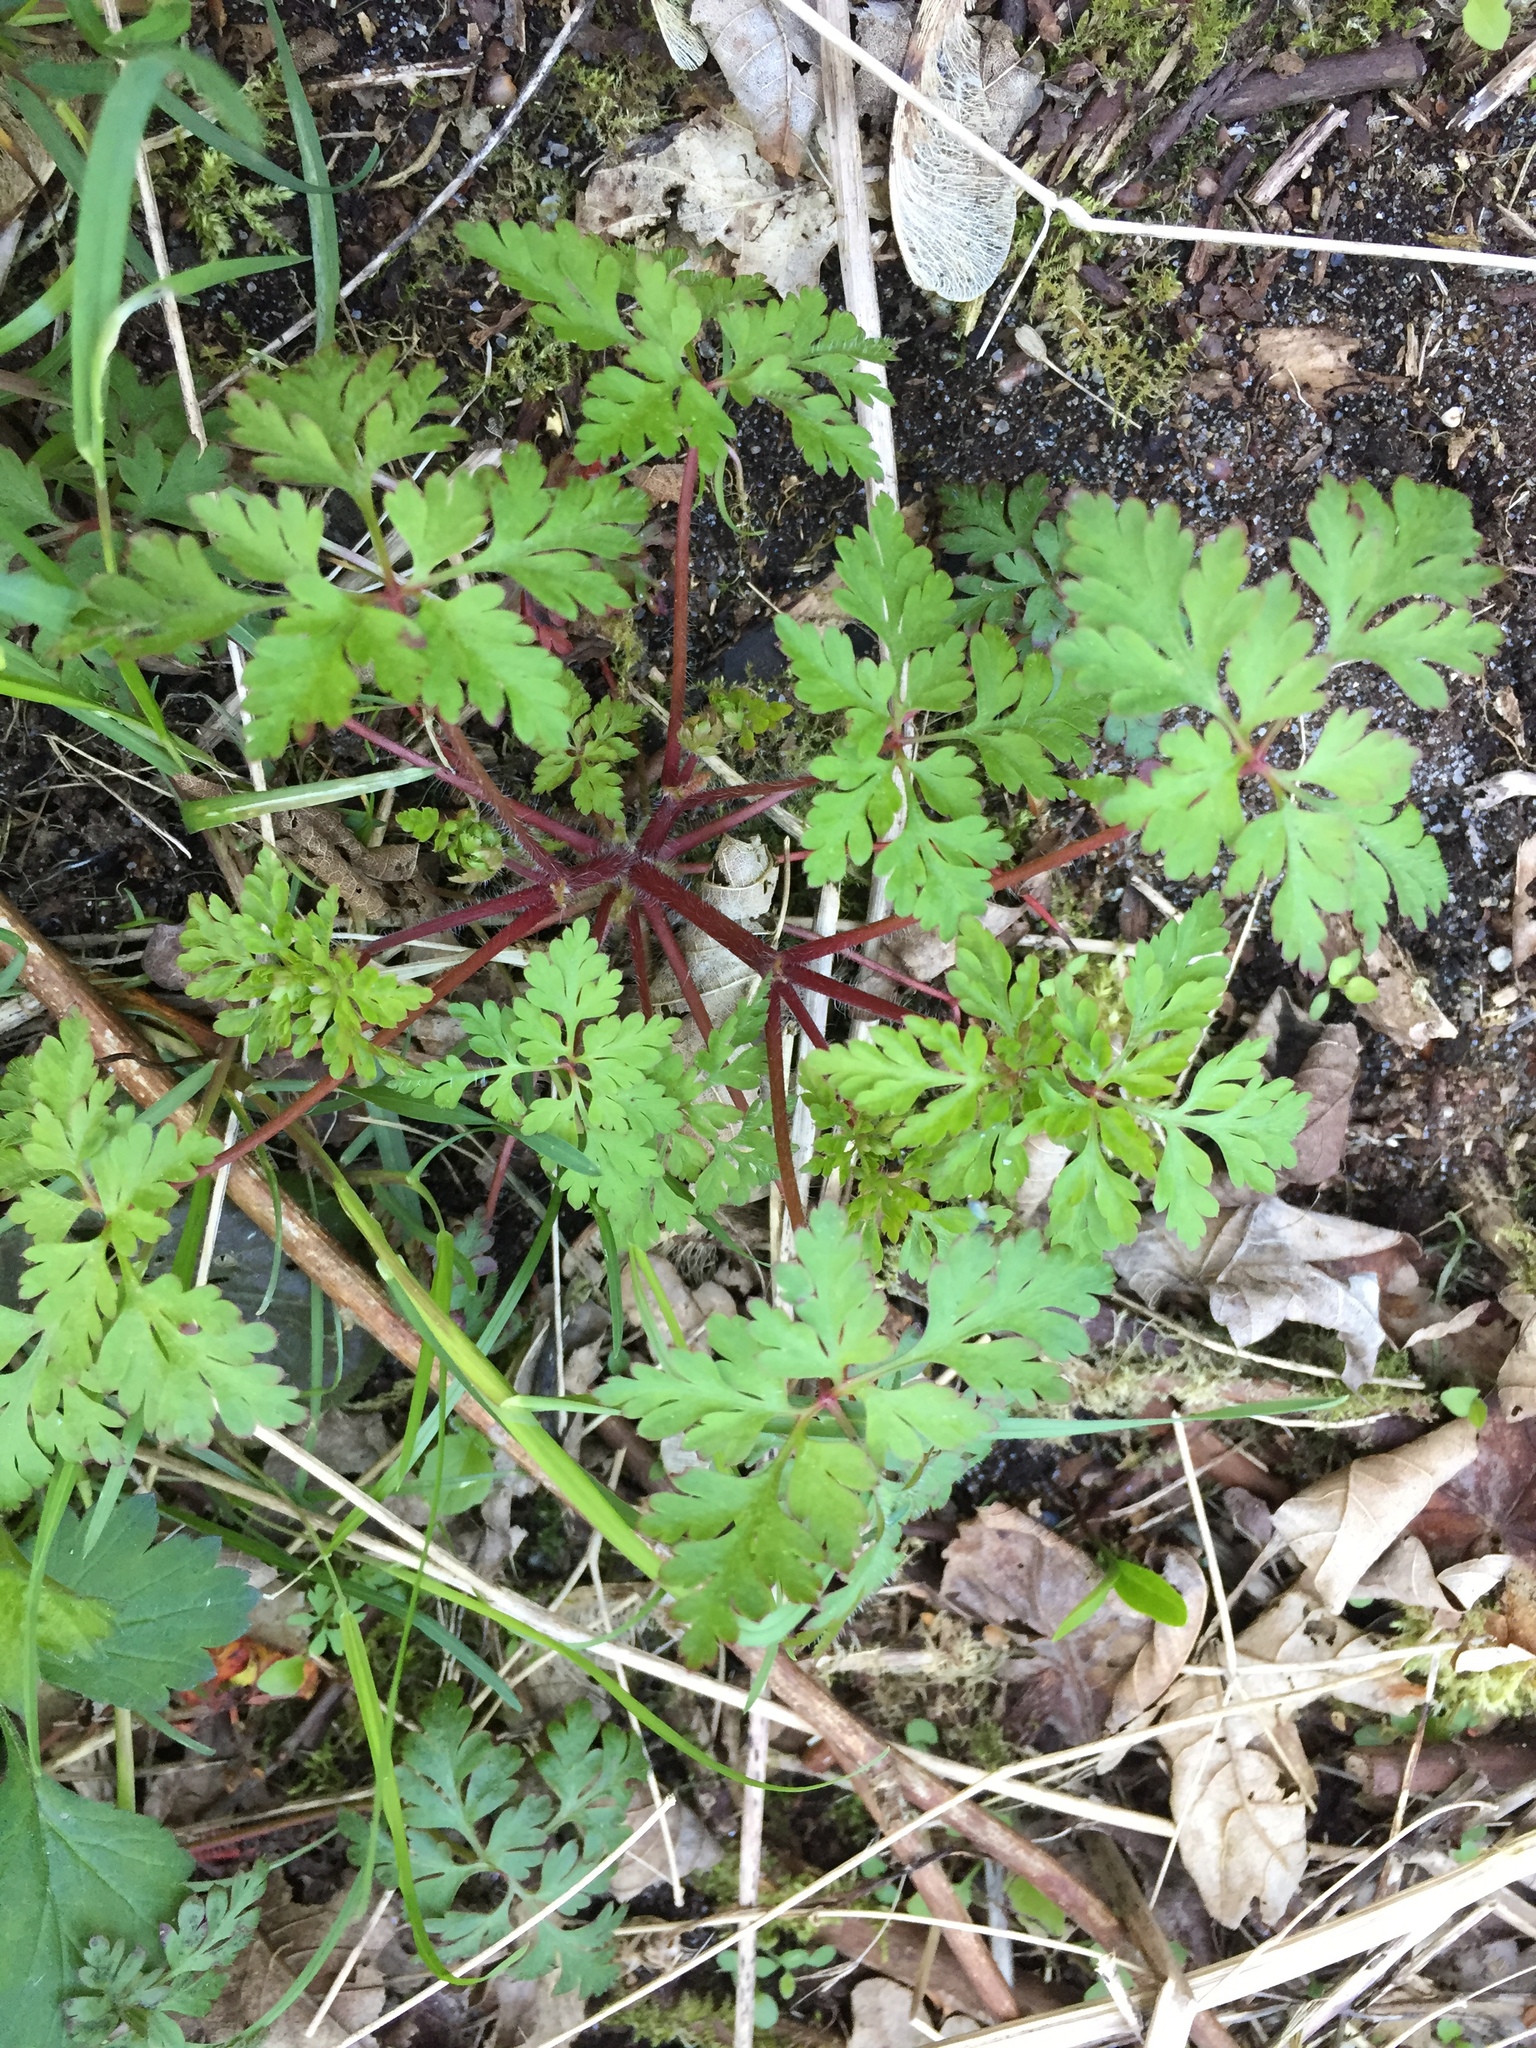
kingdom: Plantae
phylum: Tracheophyta
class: Magnoliopsida
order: Geraniales
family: Geraniaceae
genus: Geranium
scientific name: Geranium robertianum
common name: Herb-robert
